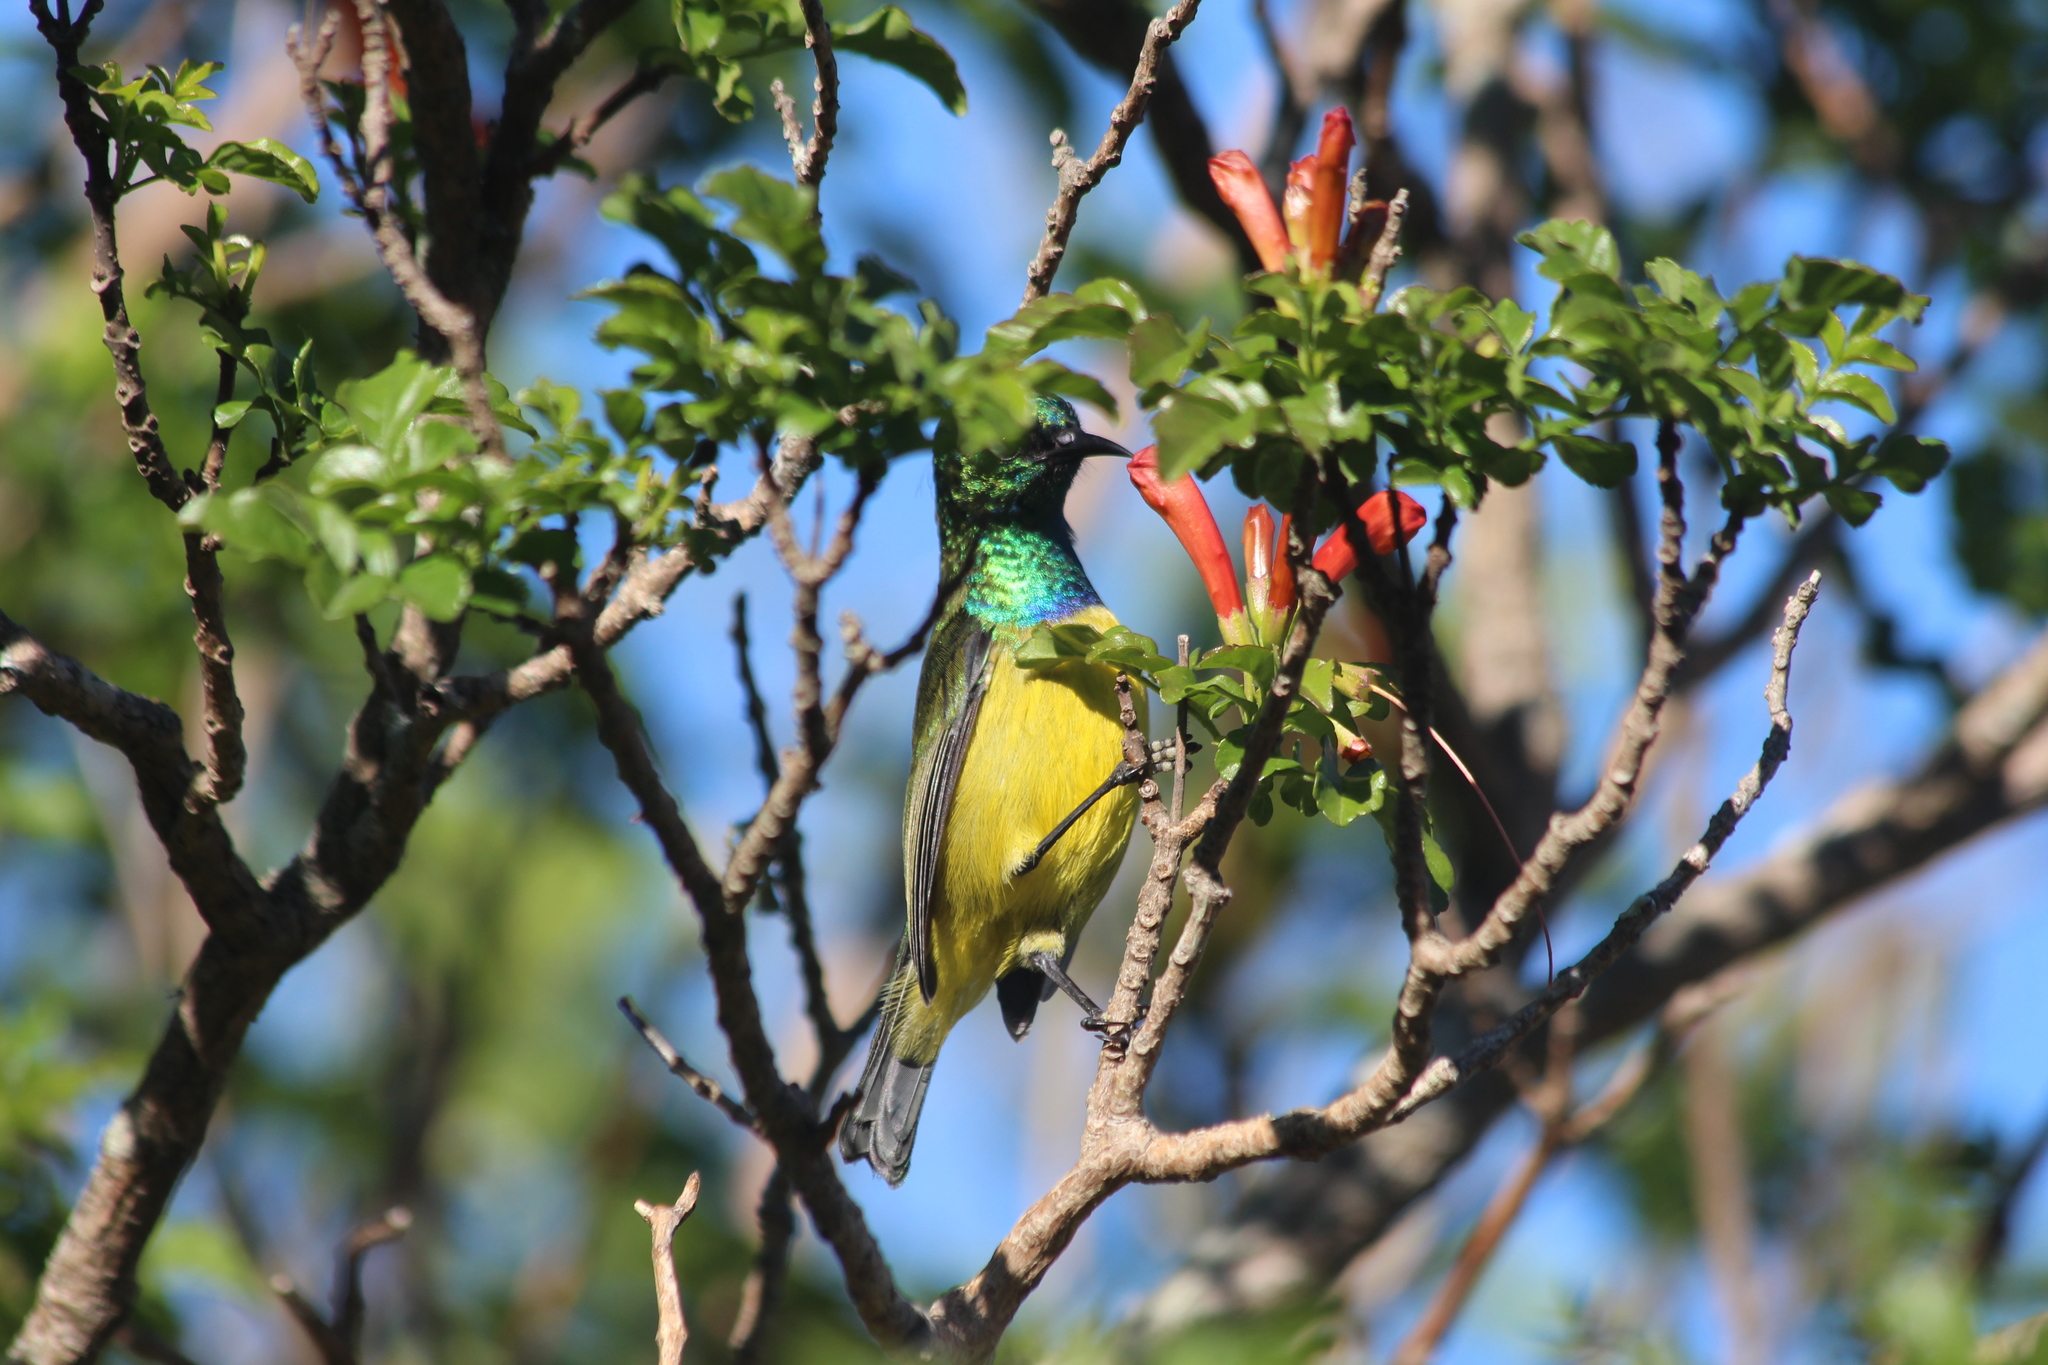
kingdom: Animalia
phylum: Chordata
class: Aves
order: Passeriformes
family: Nectariniidae
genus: Hedydipna
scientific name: Hedydipna collaris
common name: Collared sunbird
